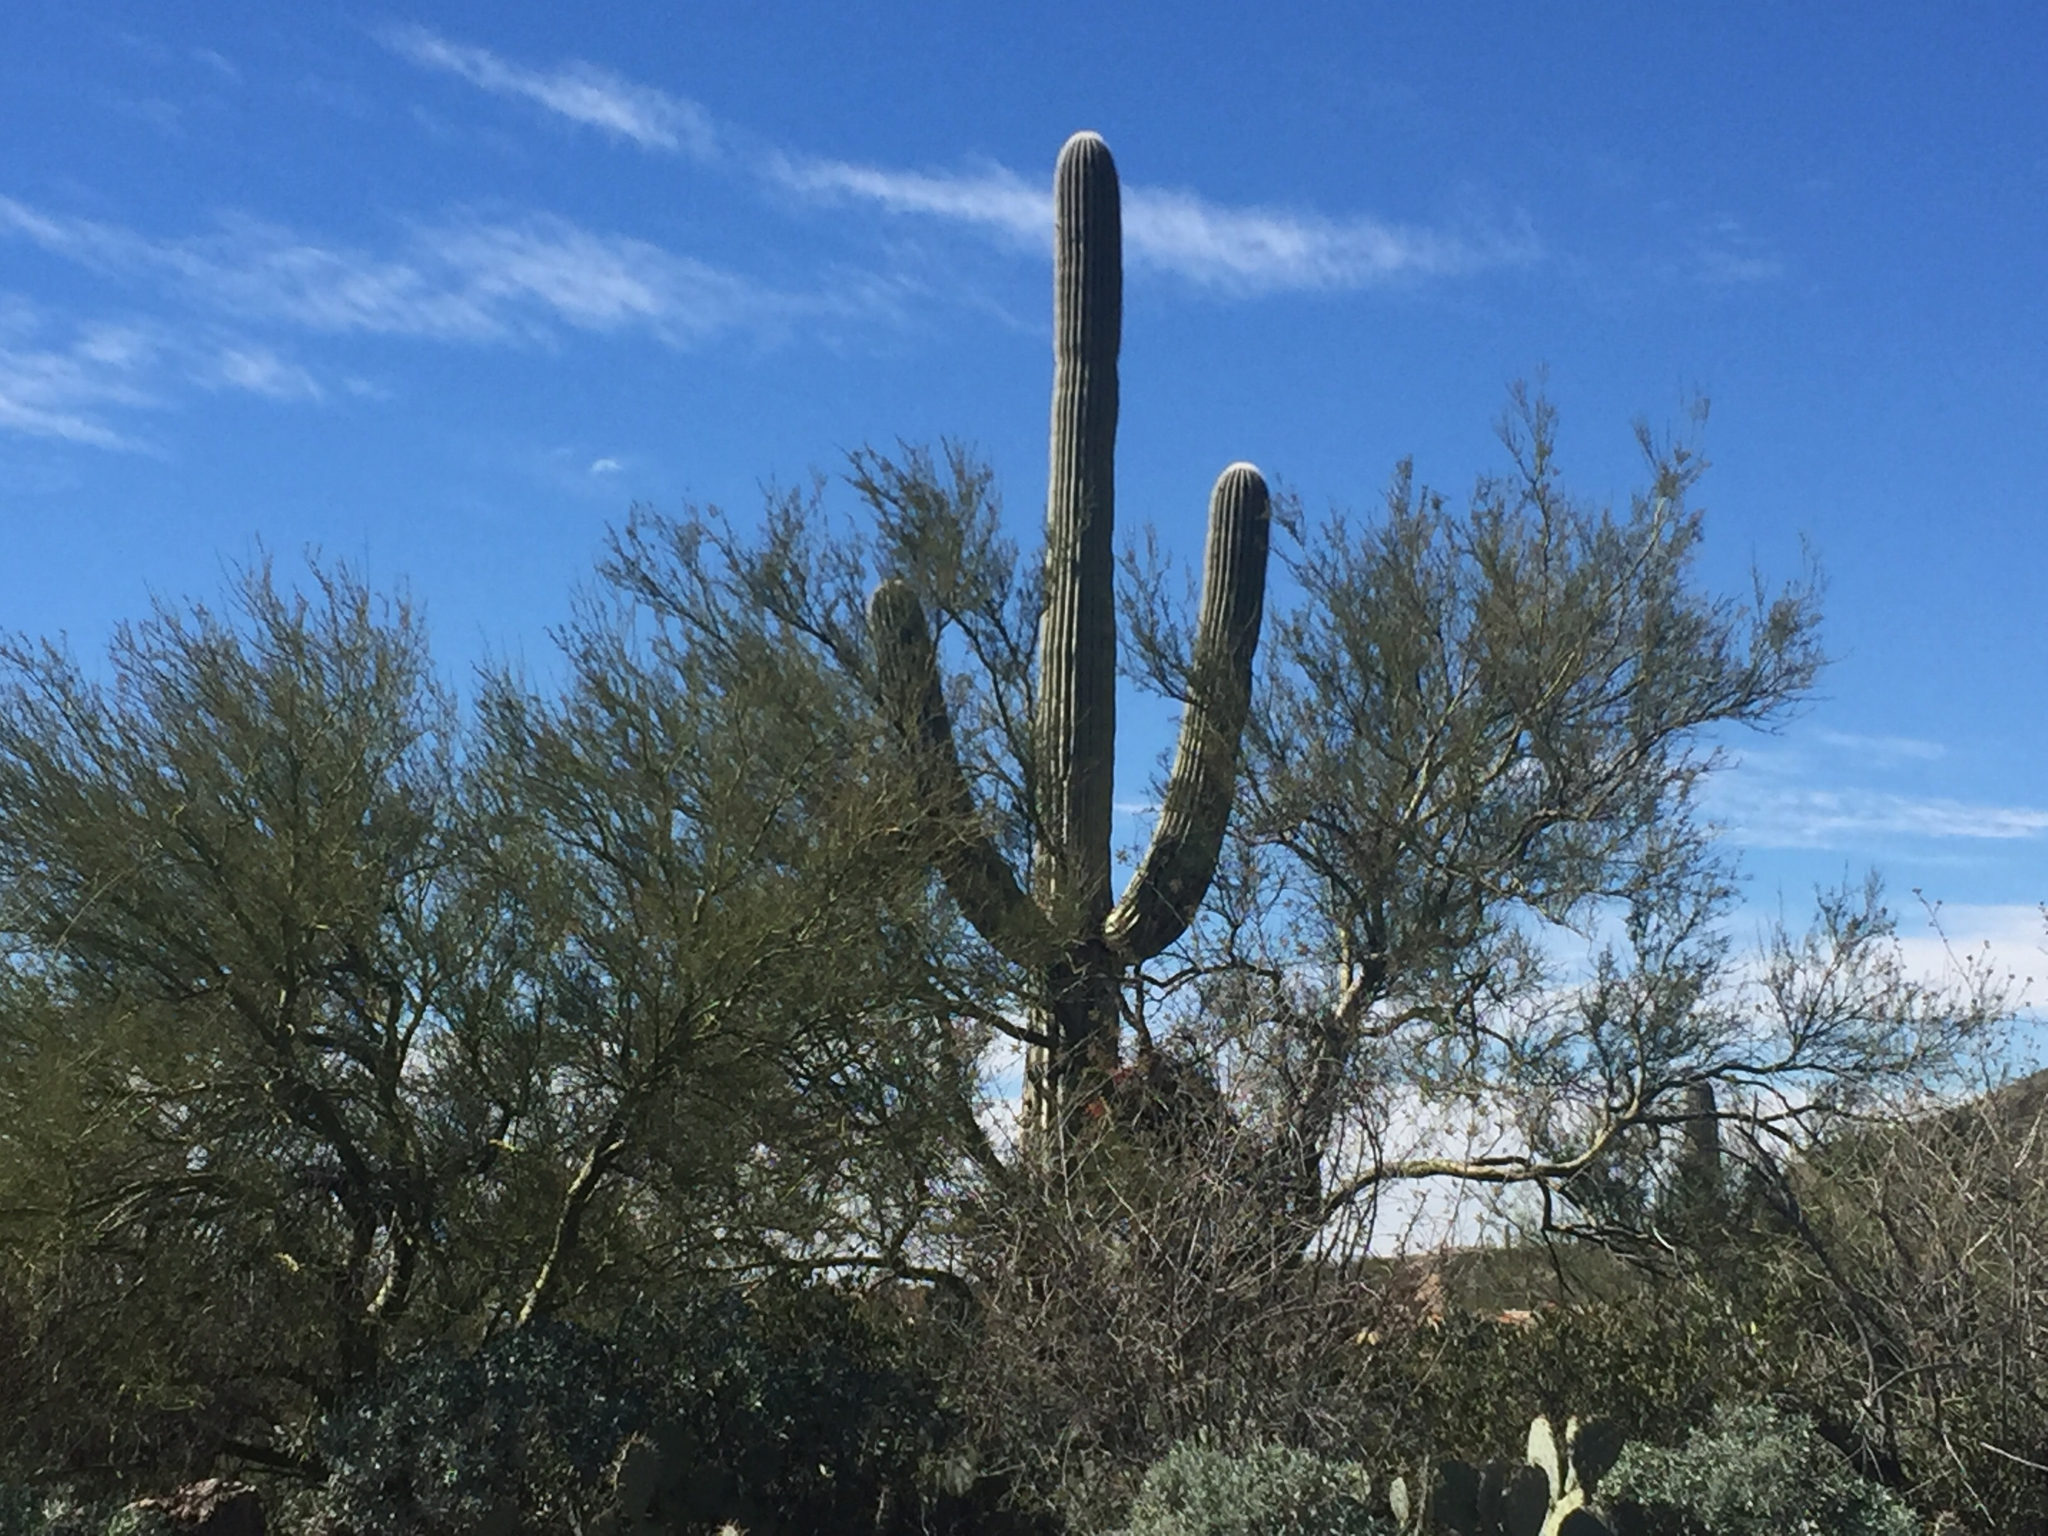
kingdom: Plantae
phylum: Tracheophyta
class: Magnoliopsida
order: Caryophyllales
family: Cactaceae
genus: Carnegiea
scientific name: Carnegiea gigantea
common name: Saguaro
